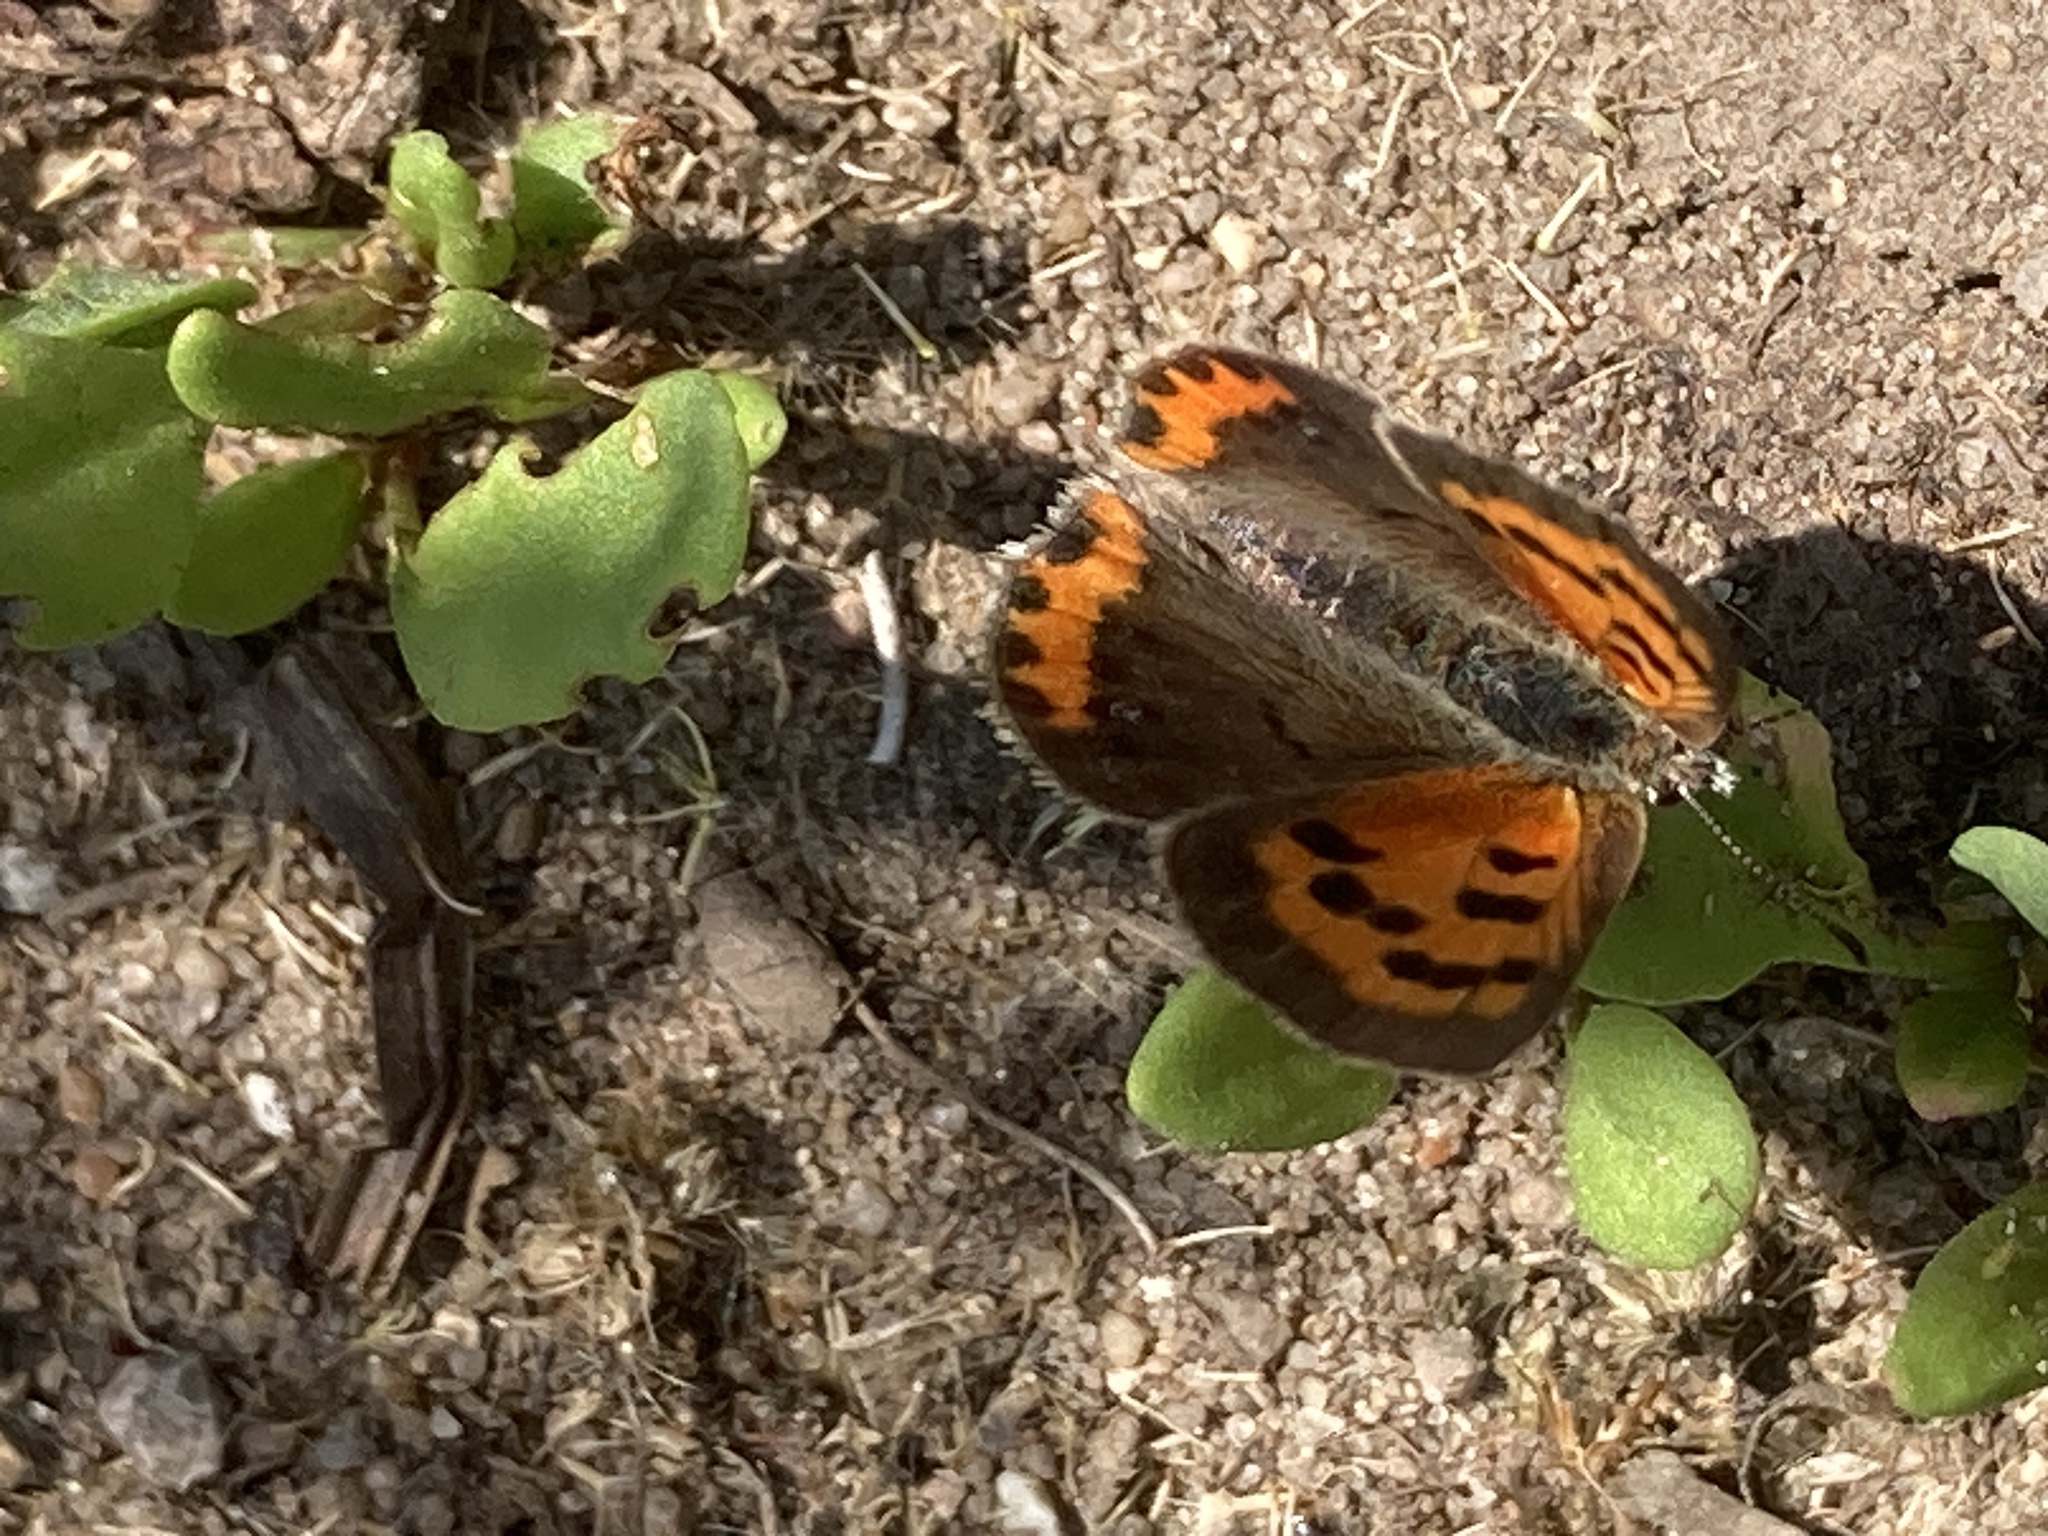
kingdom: Animalia
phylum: Arthropoda
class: Insecta
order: Lepidoptera
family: Lycaenidae
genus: Lycaena
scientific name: Lycaena hypophlaeas
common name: American copper
